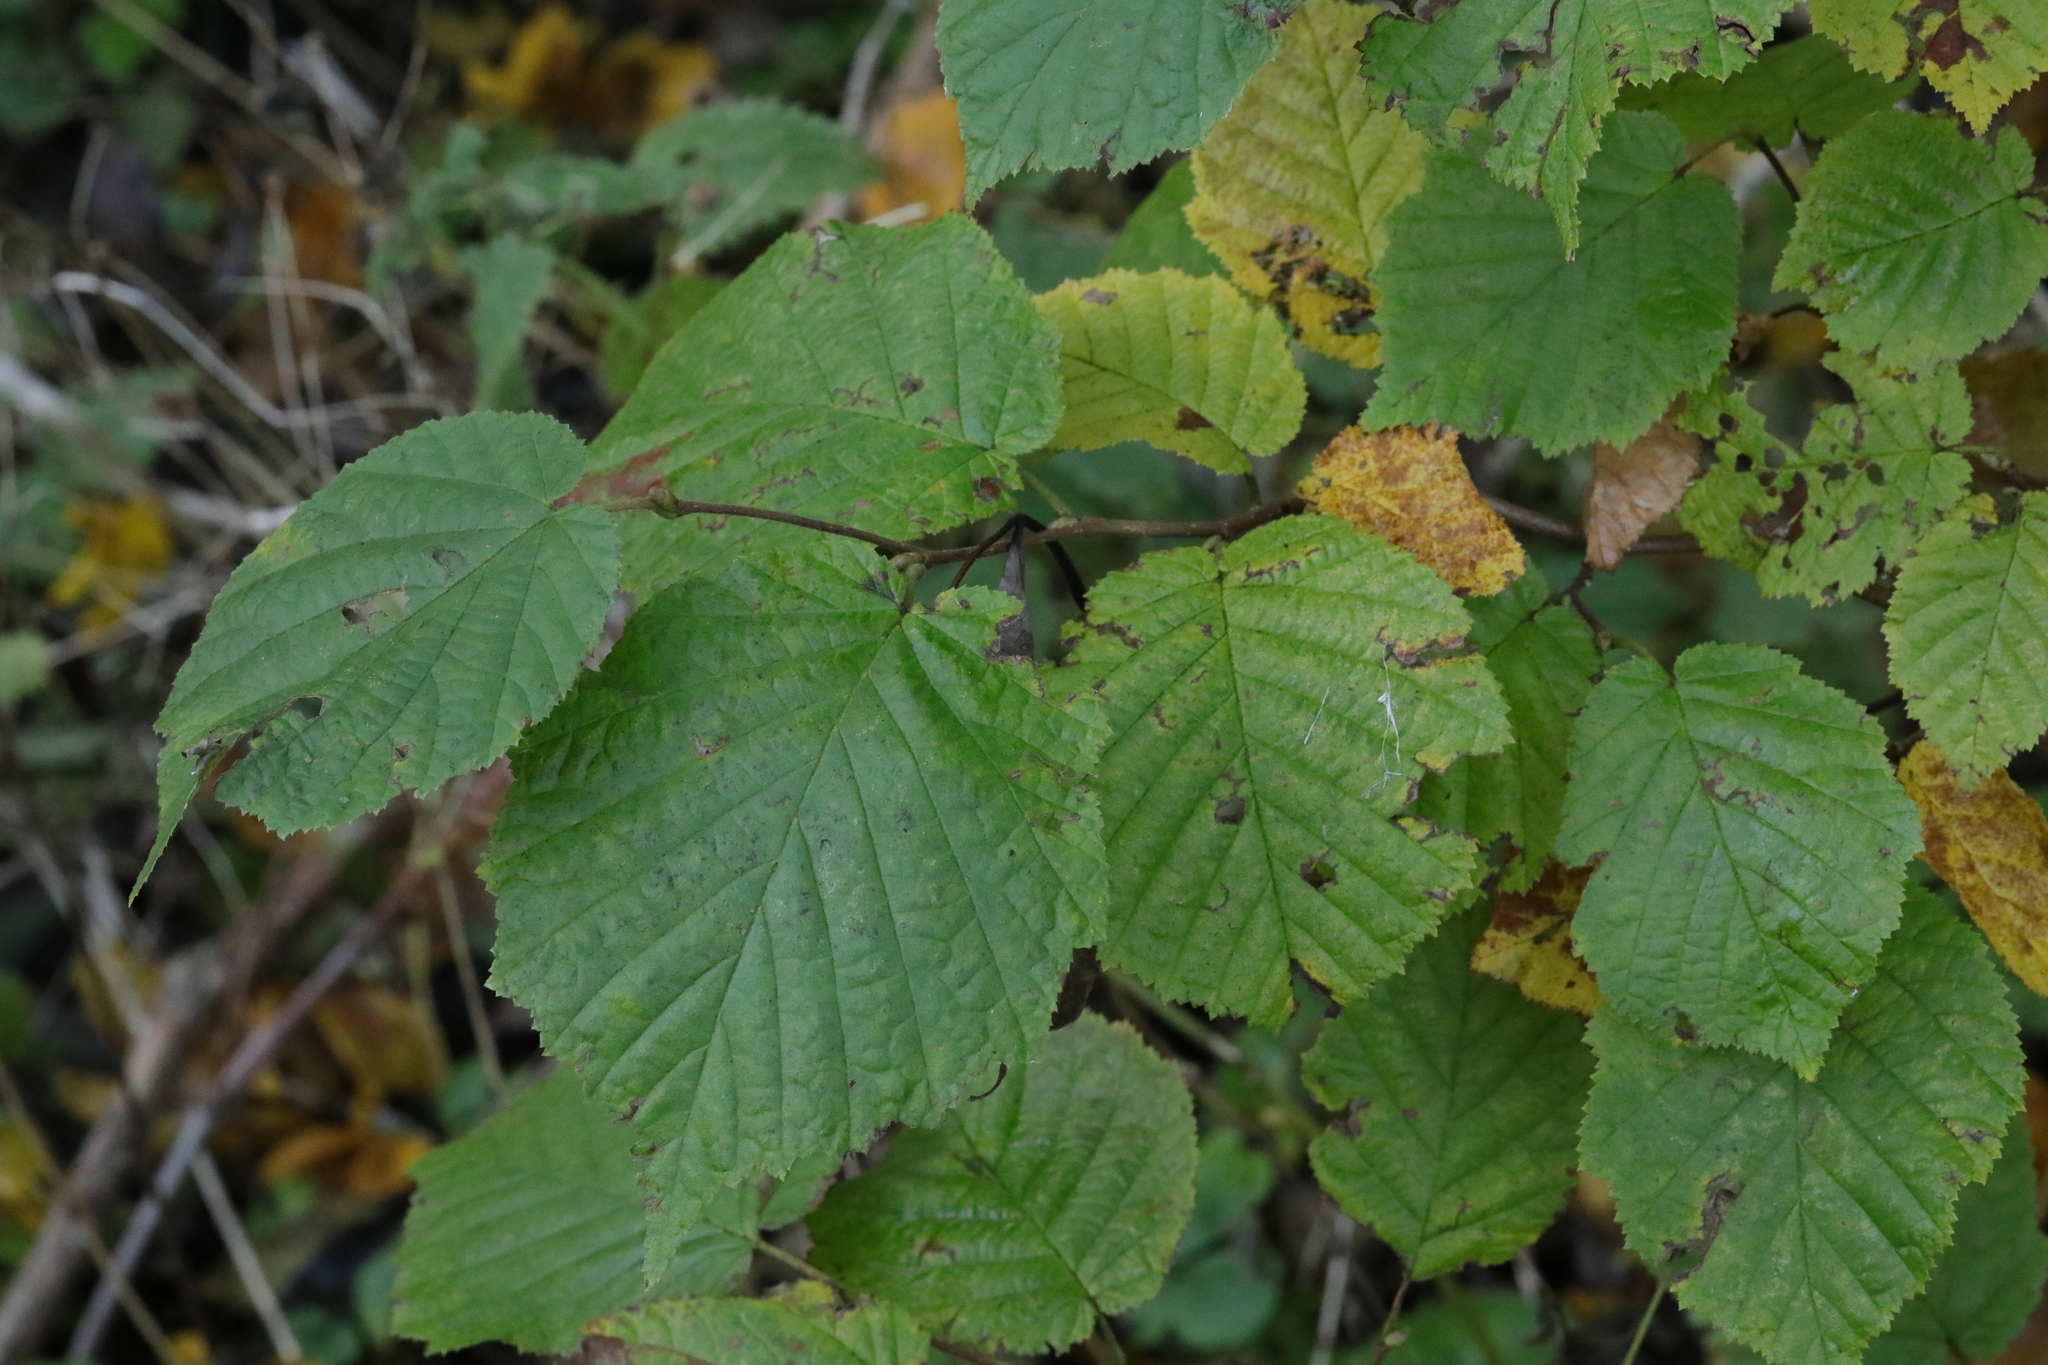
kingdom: Plantae
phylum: Tracheophyta
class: Magnoliopsida
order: Fagales
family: Betulaceae
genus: Corylus
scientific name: Corylus avellana
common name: European hazel
